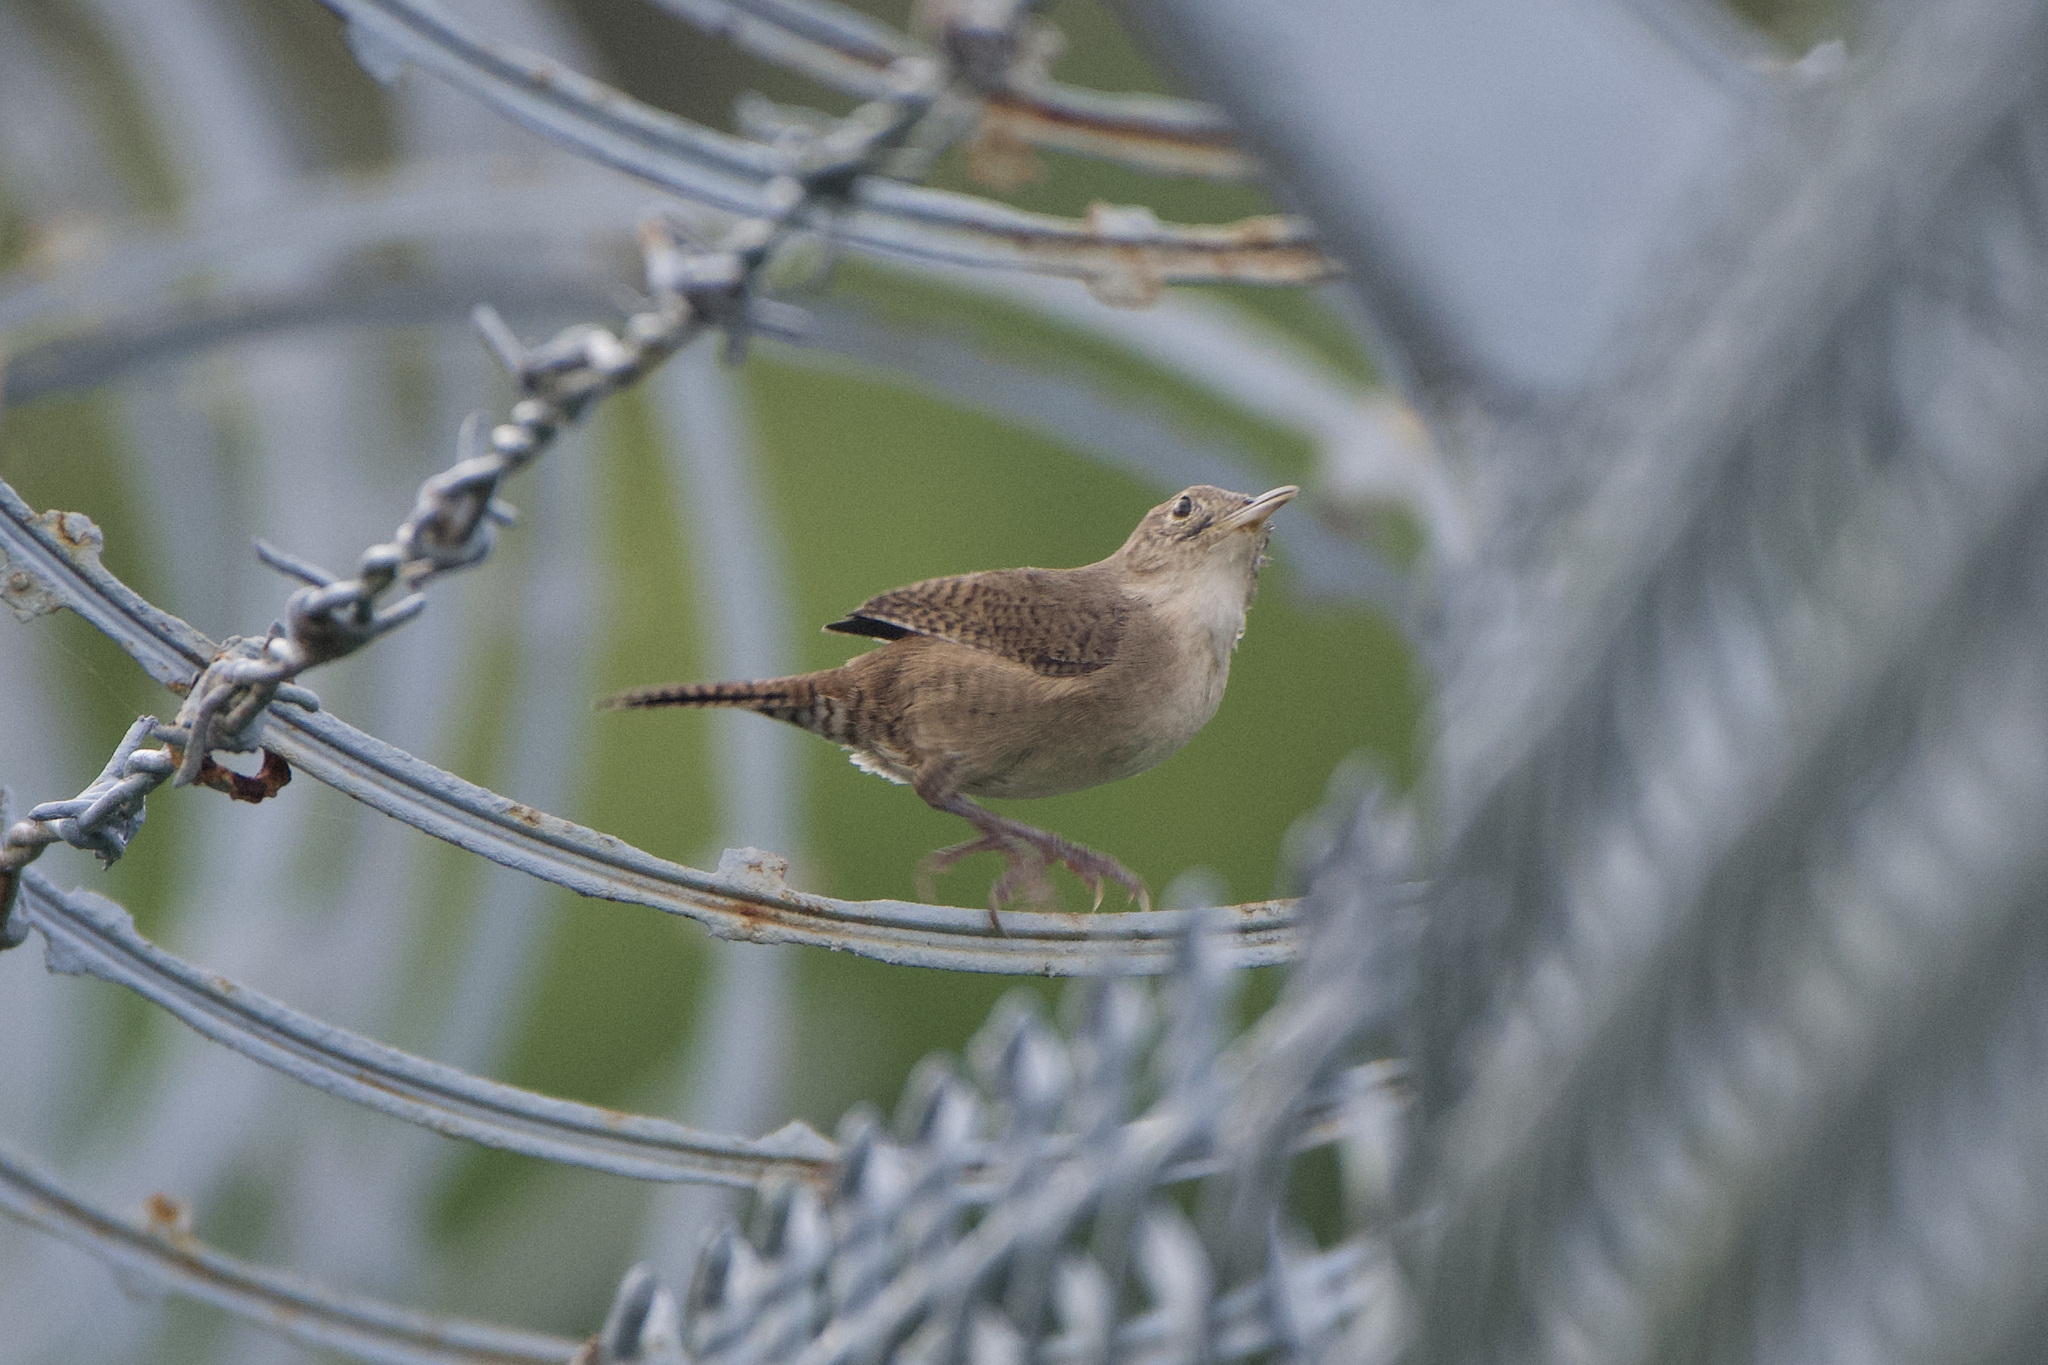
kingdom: Animalia
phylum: Chordata
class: Aves
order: Passeriformes
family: Troglodytidae
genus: Troglodytes
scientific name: Troglodytes aedon
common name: House wren
